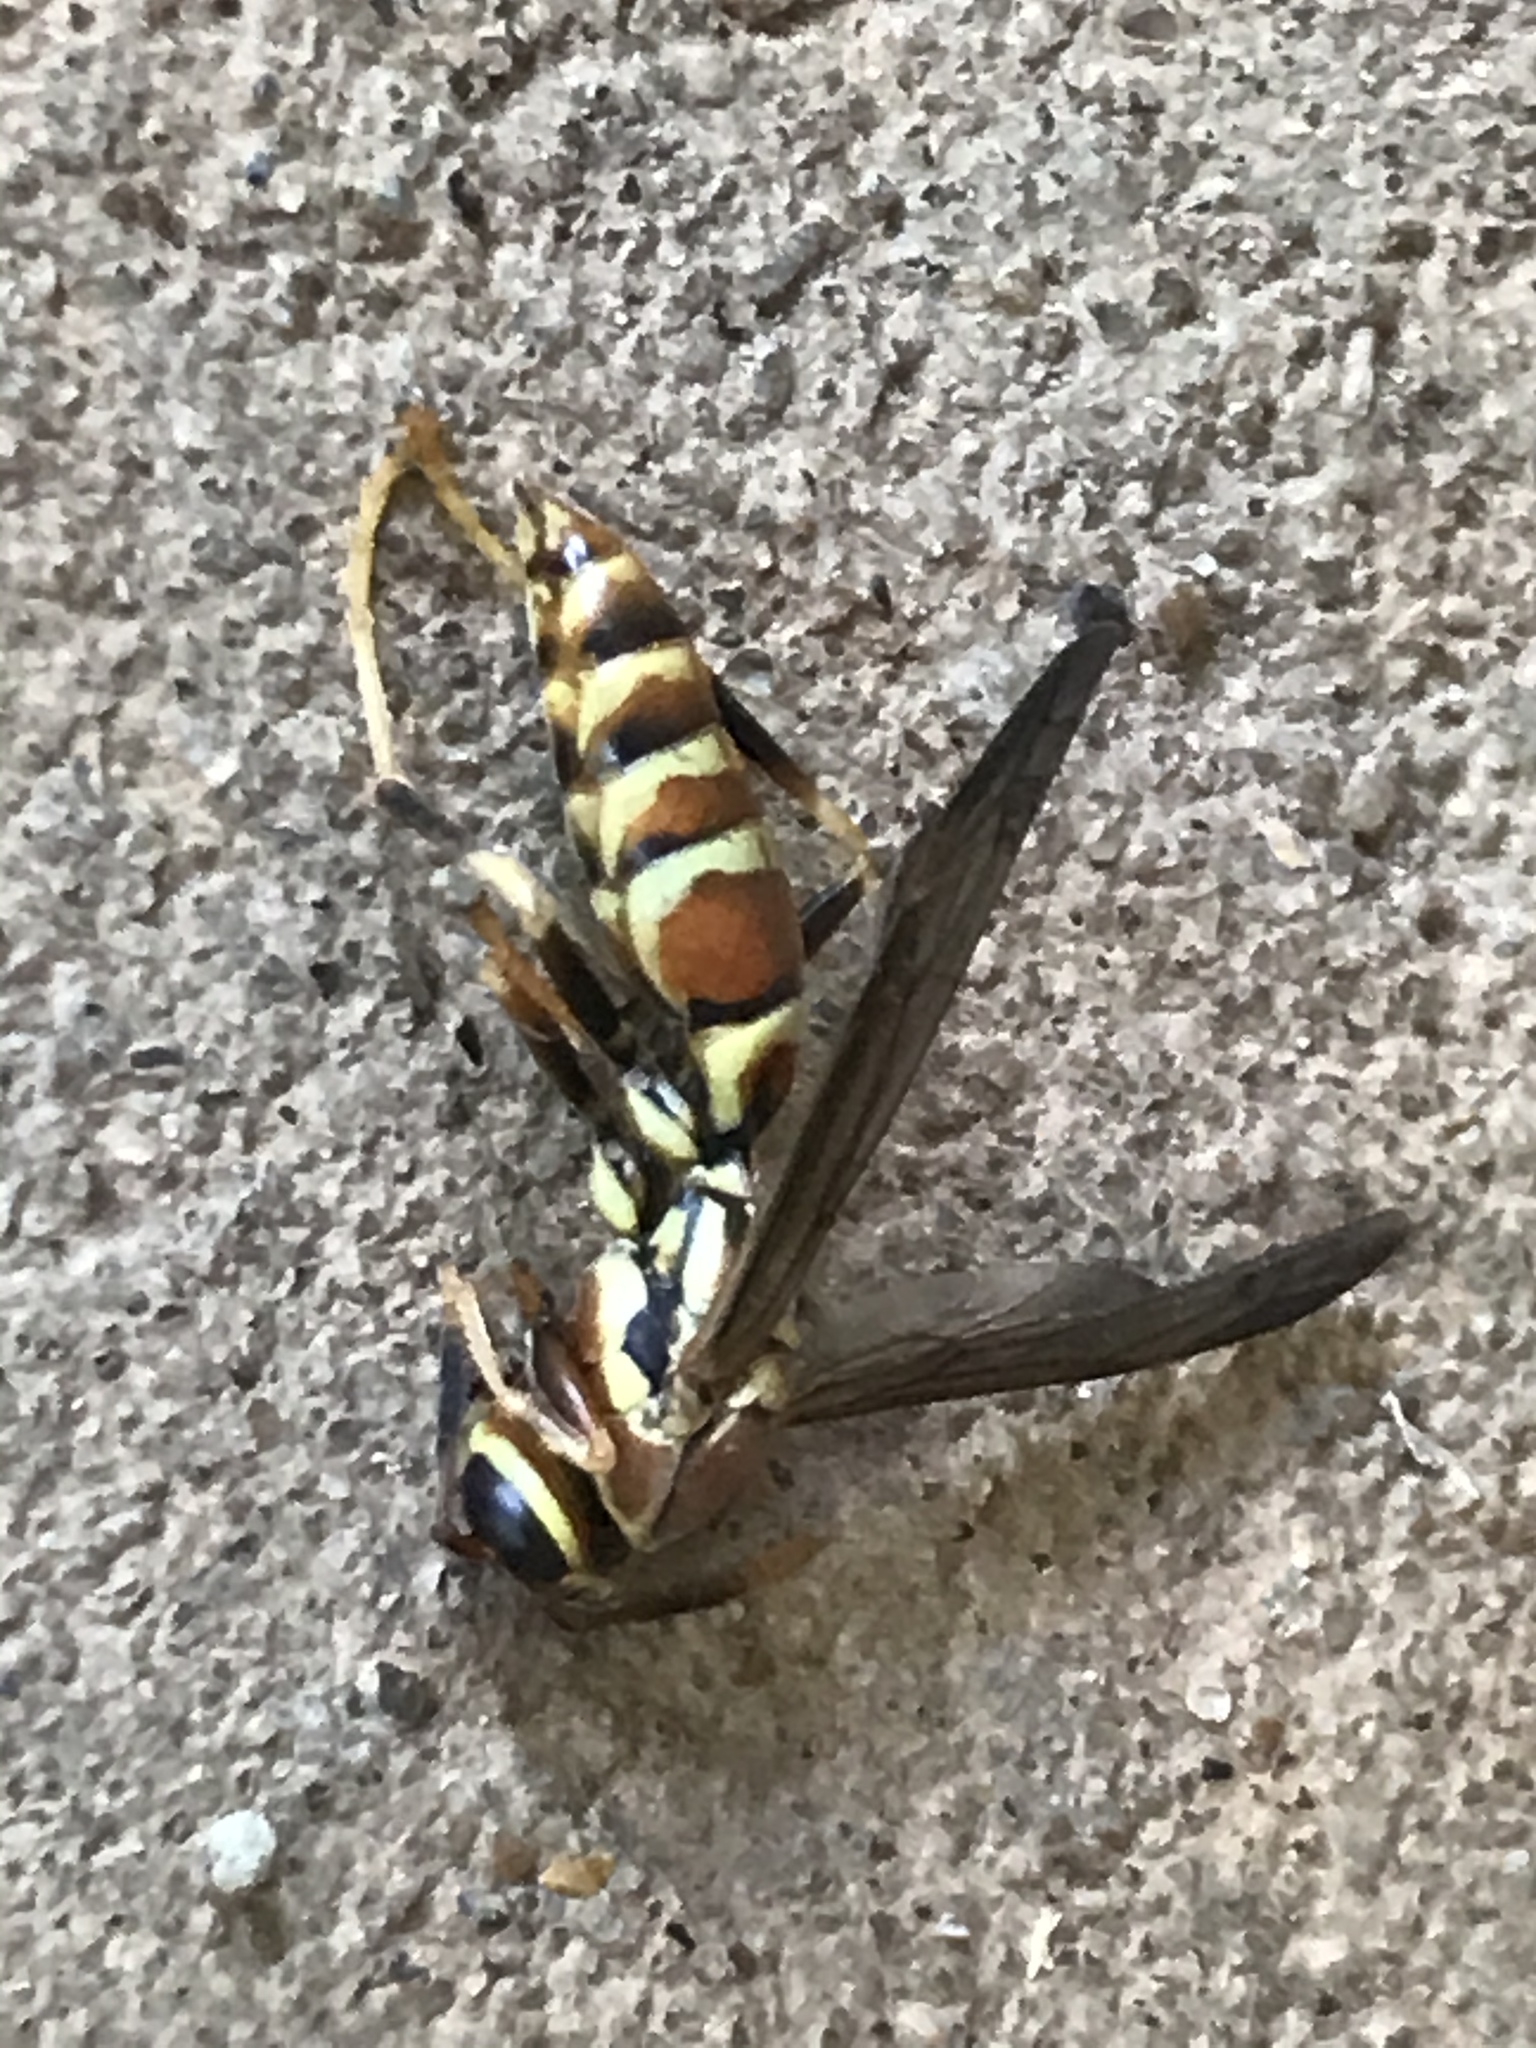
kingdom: Animalia
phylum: Arthropoda
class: Insecta
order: Hymenoptera
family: Eumenidae
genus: Polistes
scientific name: Polistes exclamans
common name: Paper wasp
